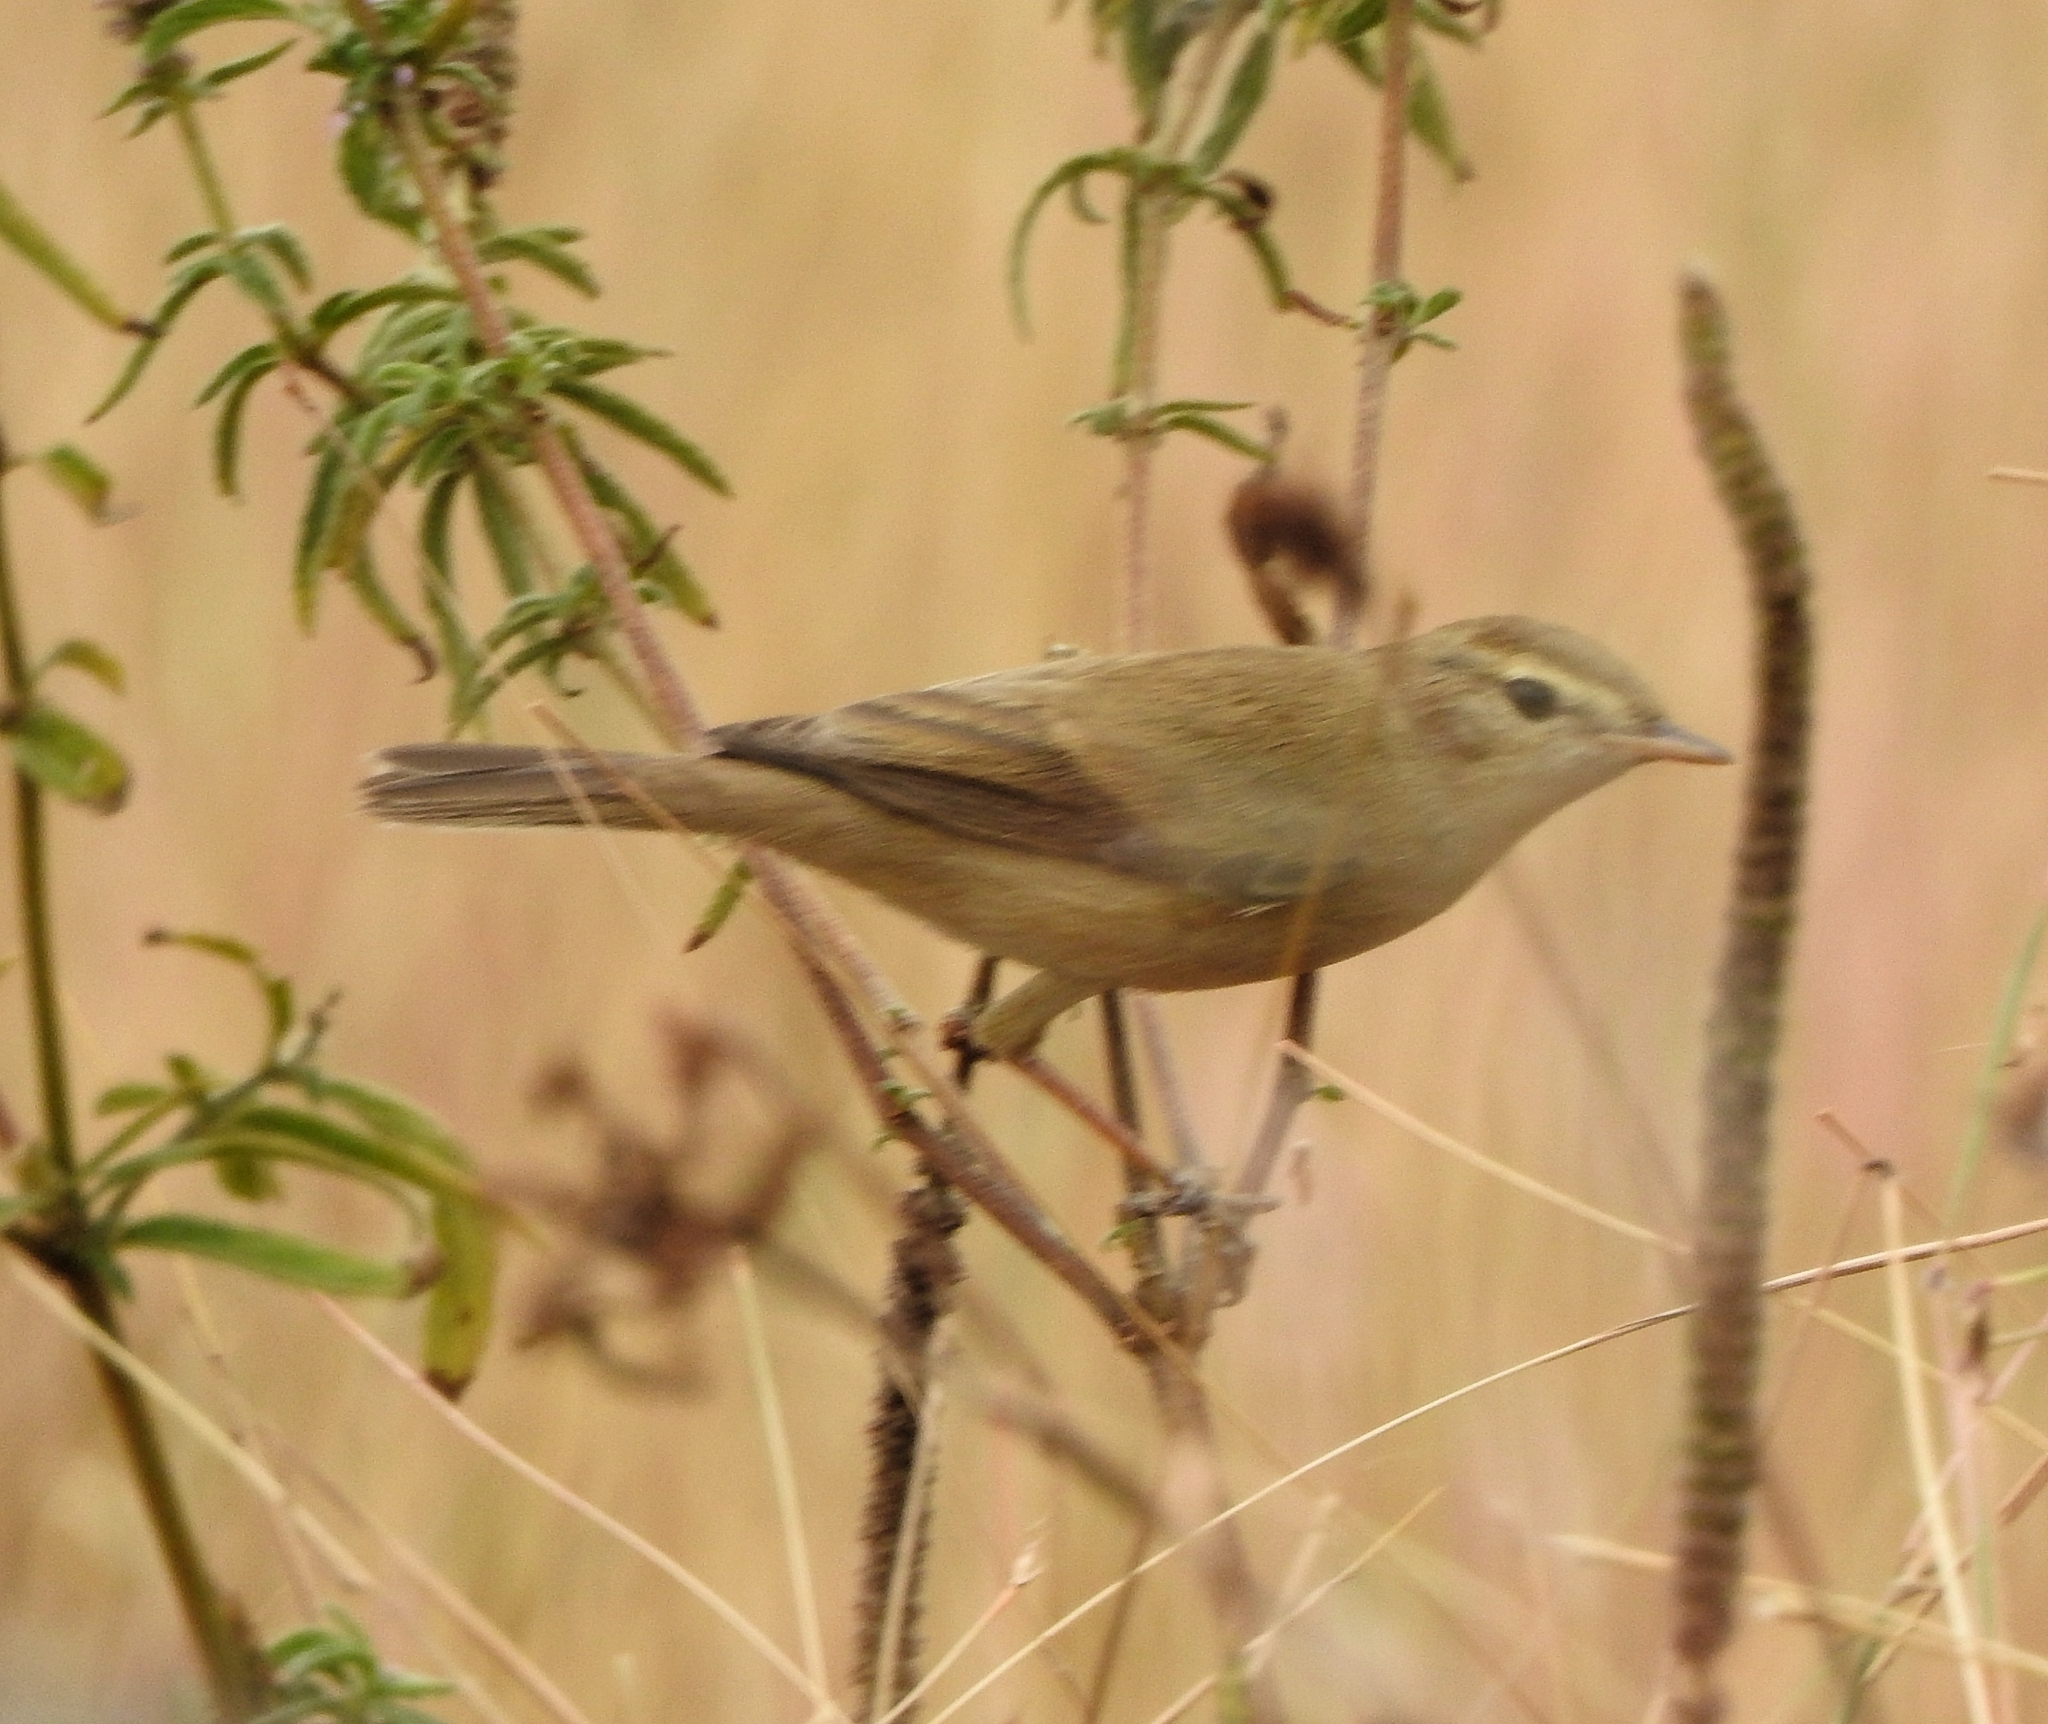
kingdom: Animalia
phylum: Chordata
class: Aves
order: Passeriformes
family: Acrocephalidae
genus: Iduna
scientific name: Iduna caligata
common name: Booted warbler
